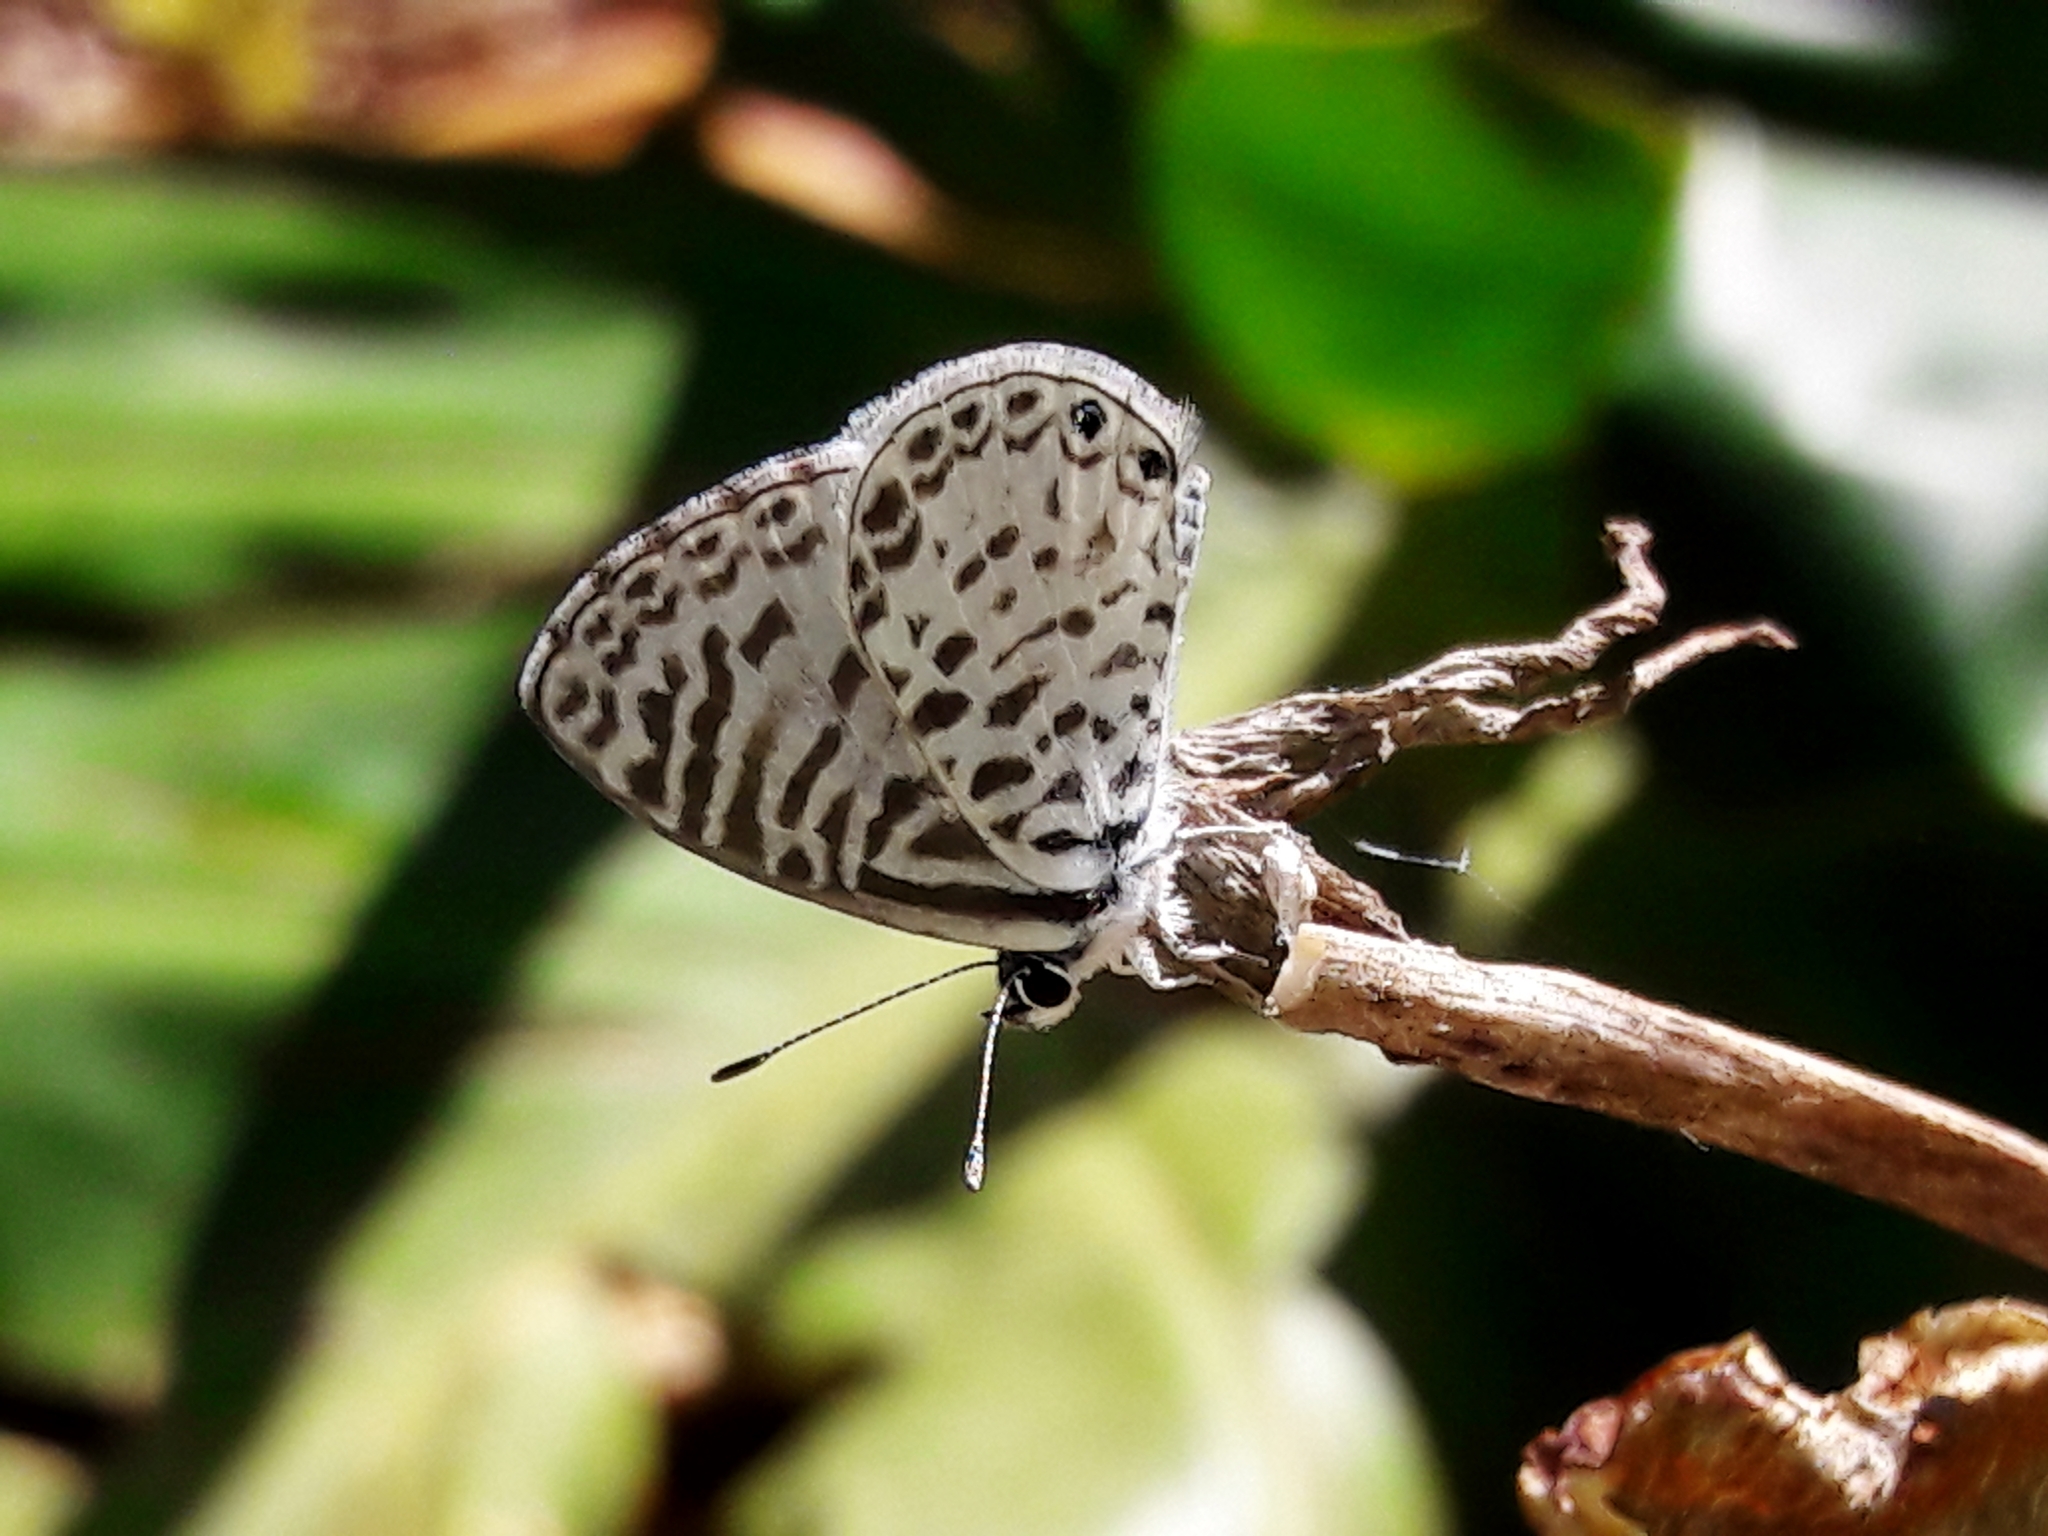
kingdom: Animalia
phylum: Arthropoda
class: Insecta
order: Lepidoptera
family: Lycaenidae
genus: Leptotes
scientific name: Leptotes cassius
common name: Cassius blue
